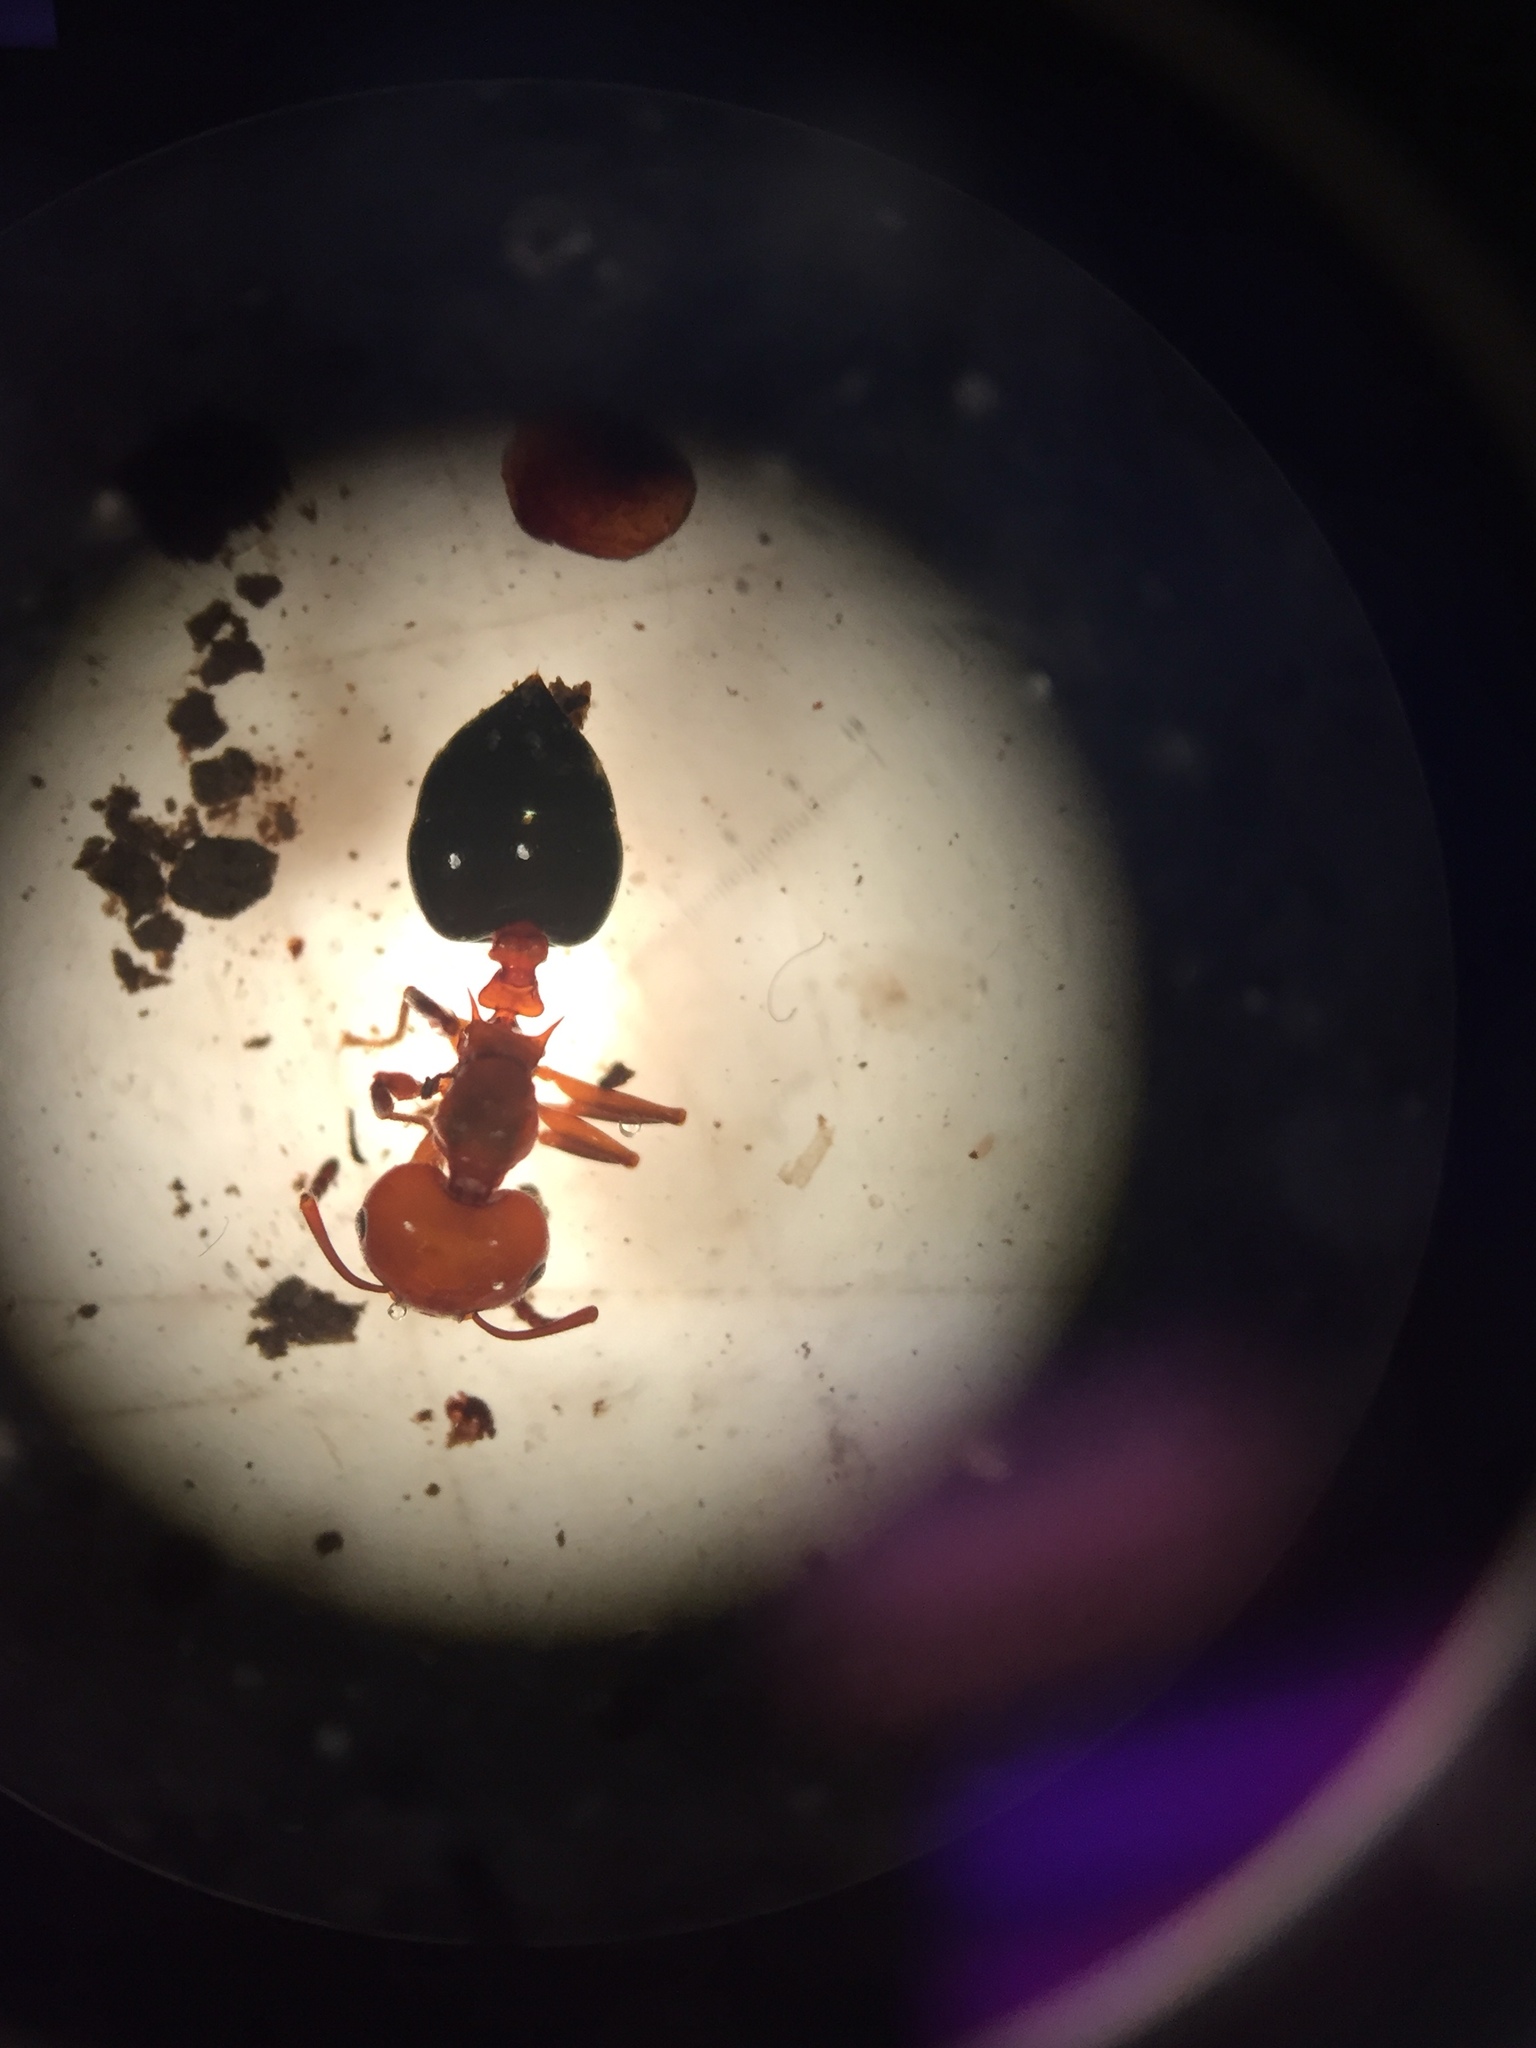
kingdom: Animalia
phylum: Arthropoda
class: Insecta
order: Hymenoptera
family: Formicidae
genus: Crematogaster
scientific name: Crematogaster laeviuscula
